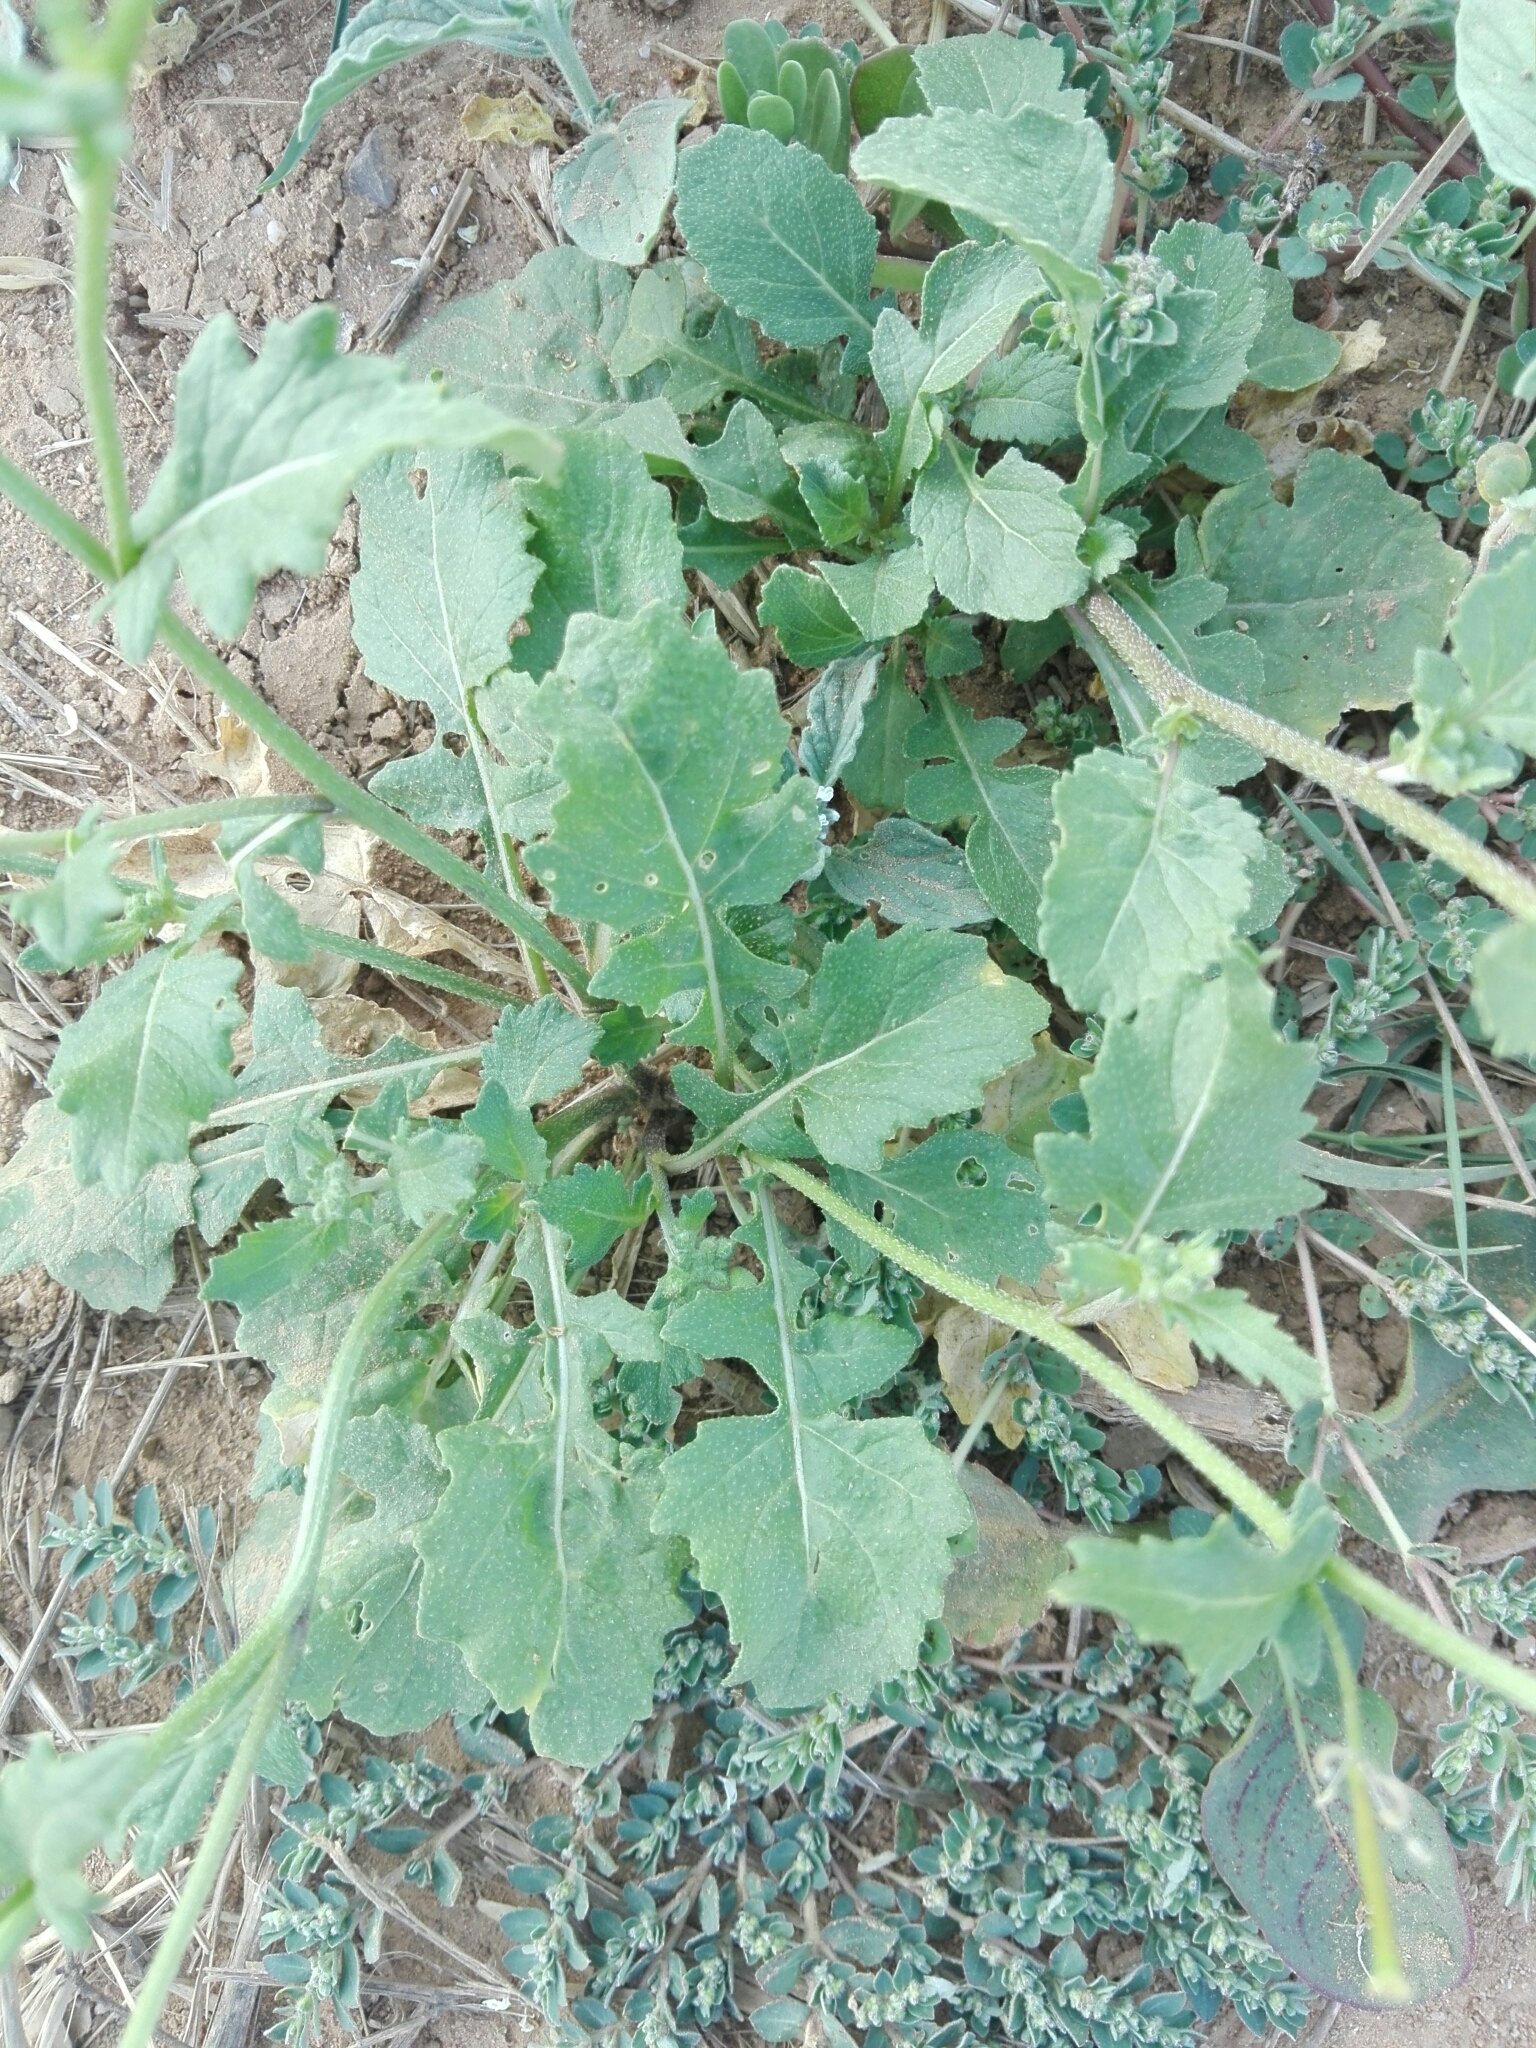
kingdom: Plantae
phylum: Tracheophyta
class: Magnoliopsida
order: Brassicales
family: Brassicaceae
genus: Diplotaxis
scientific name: Diplotaxis erucoides
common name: White rocket
